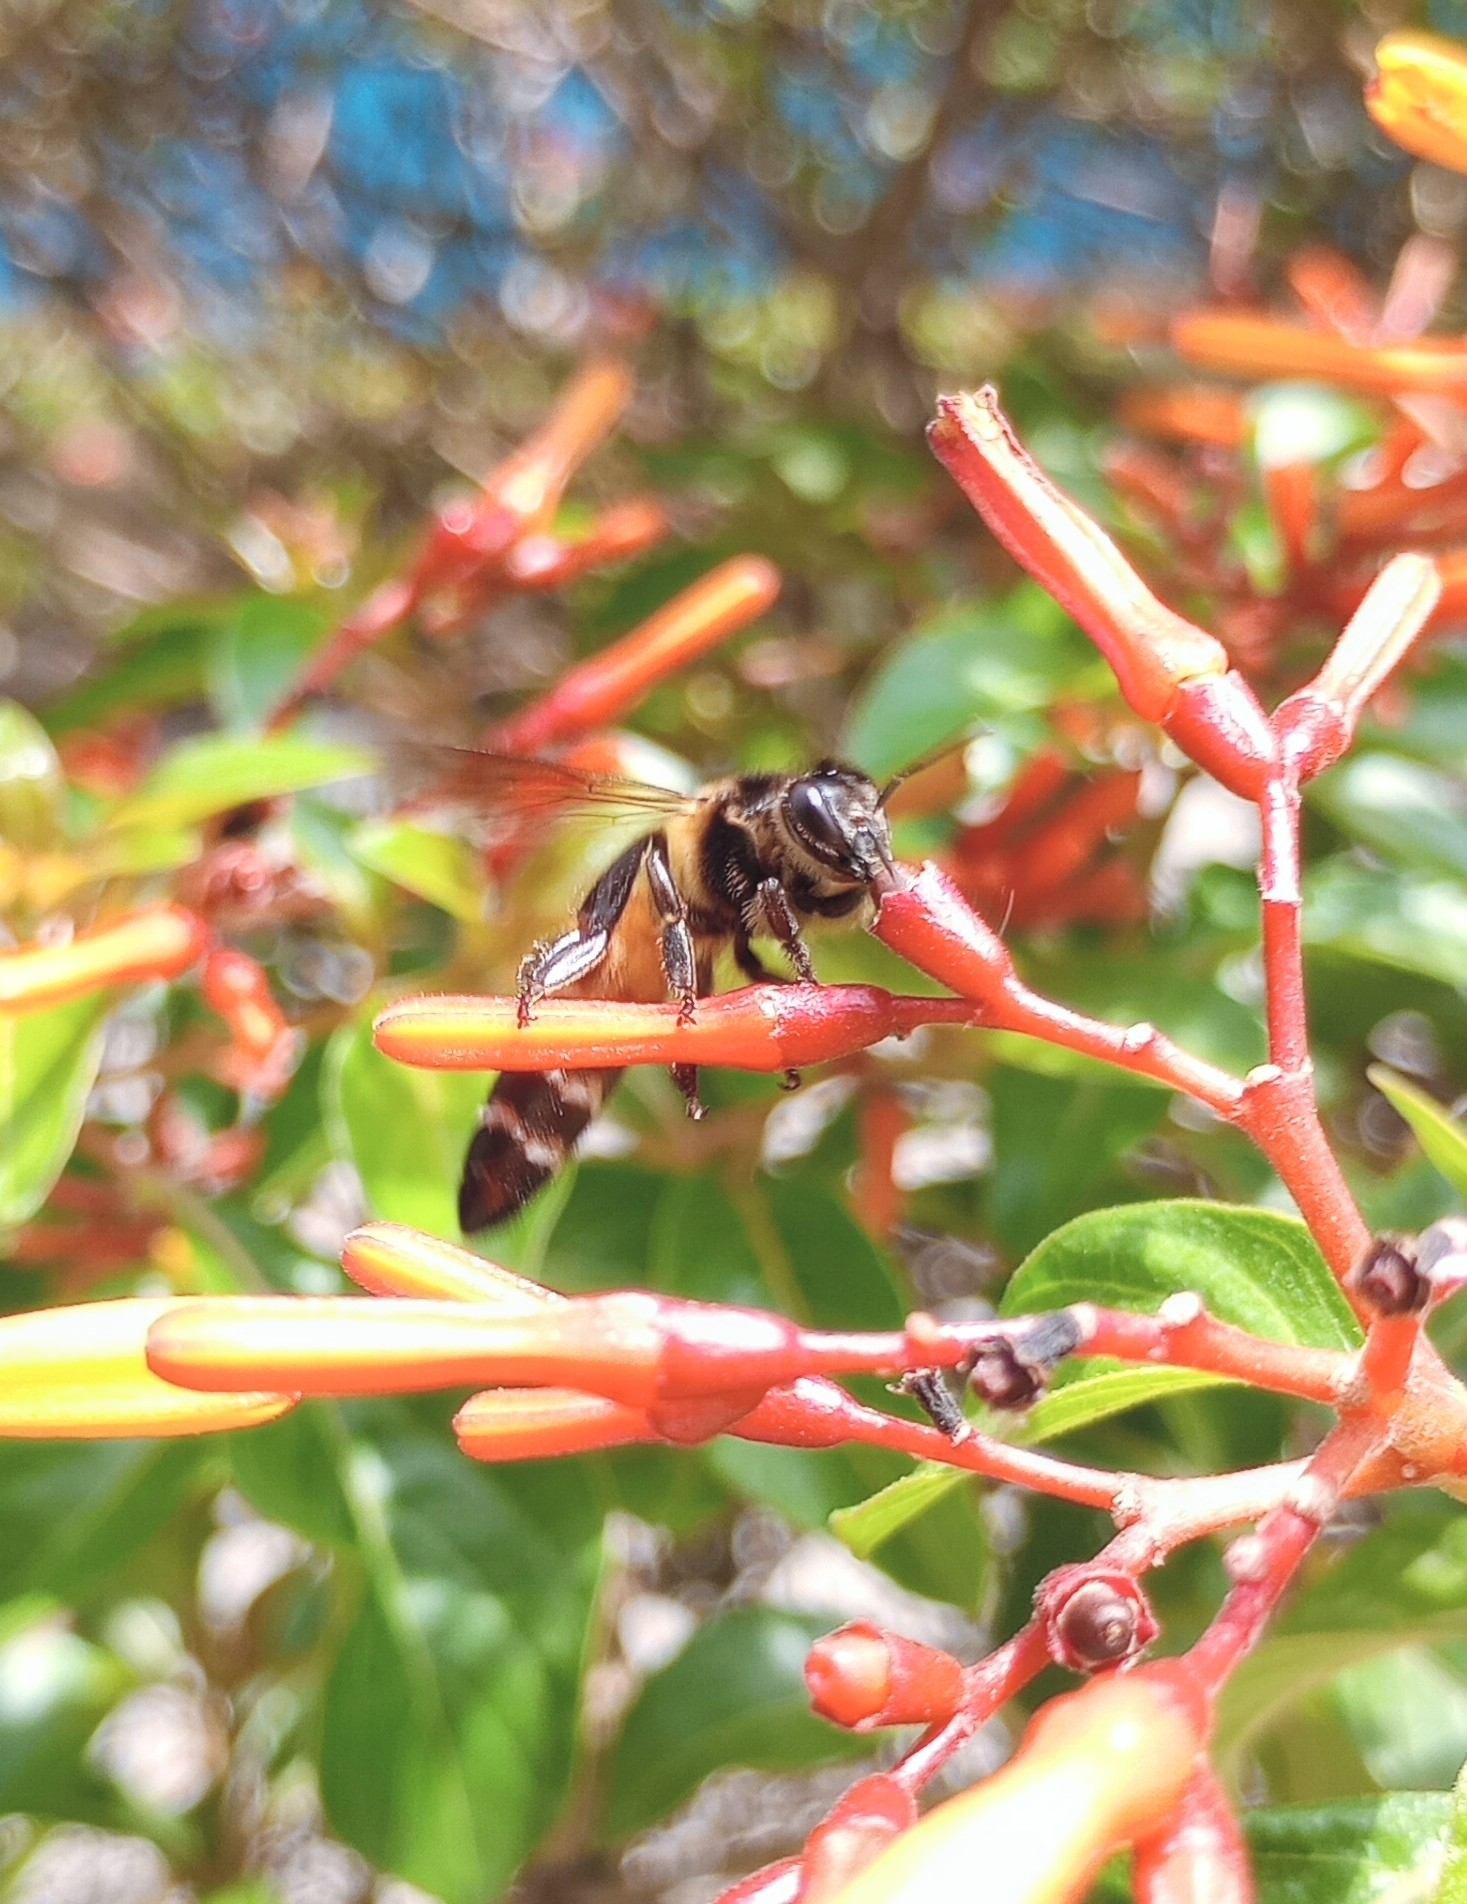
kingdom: Animalia
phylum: Arthropoda
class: Insecta
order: Hymenoptera
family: Apidae
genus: Apis
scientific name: Apis dorsata
